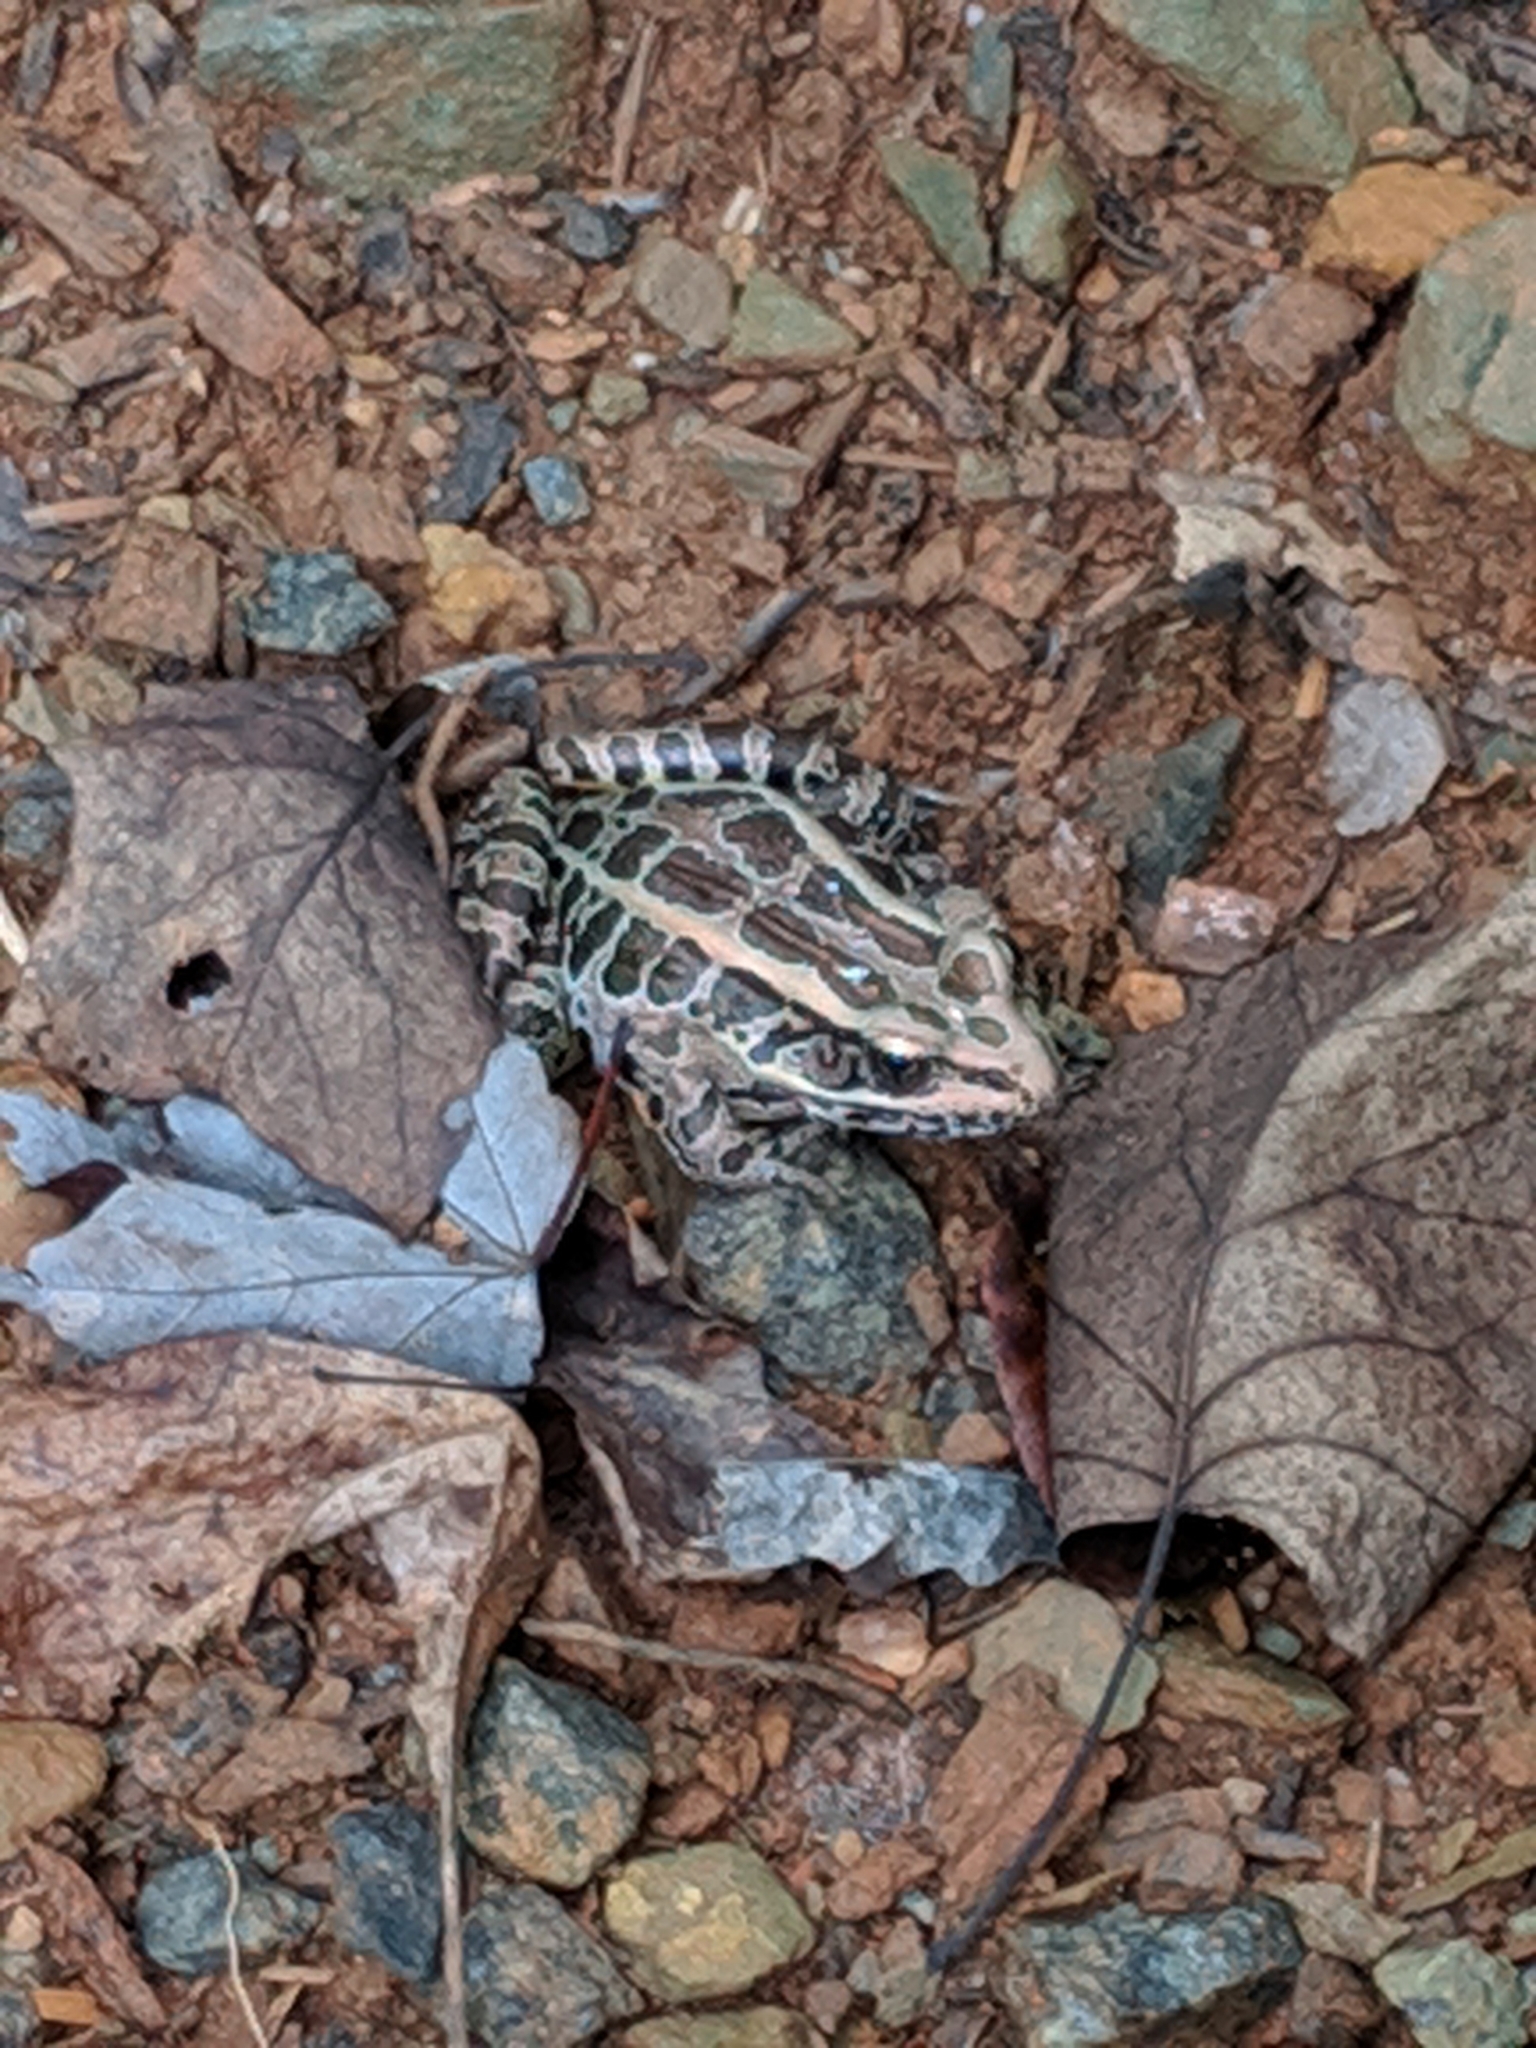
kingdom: Animalia
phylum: Chordata
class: Amphibia
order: Anura
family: Ranidae
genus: Lithobates
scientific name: Lithobates palustris
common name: Pickerel frog
